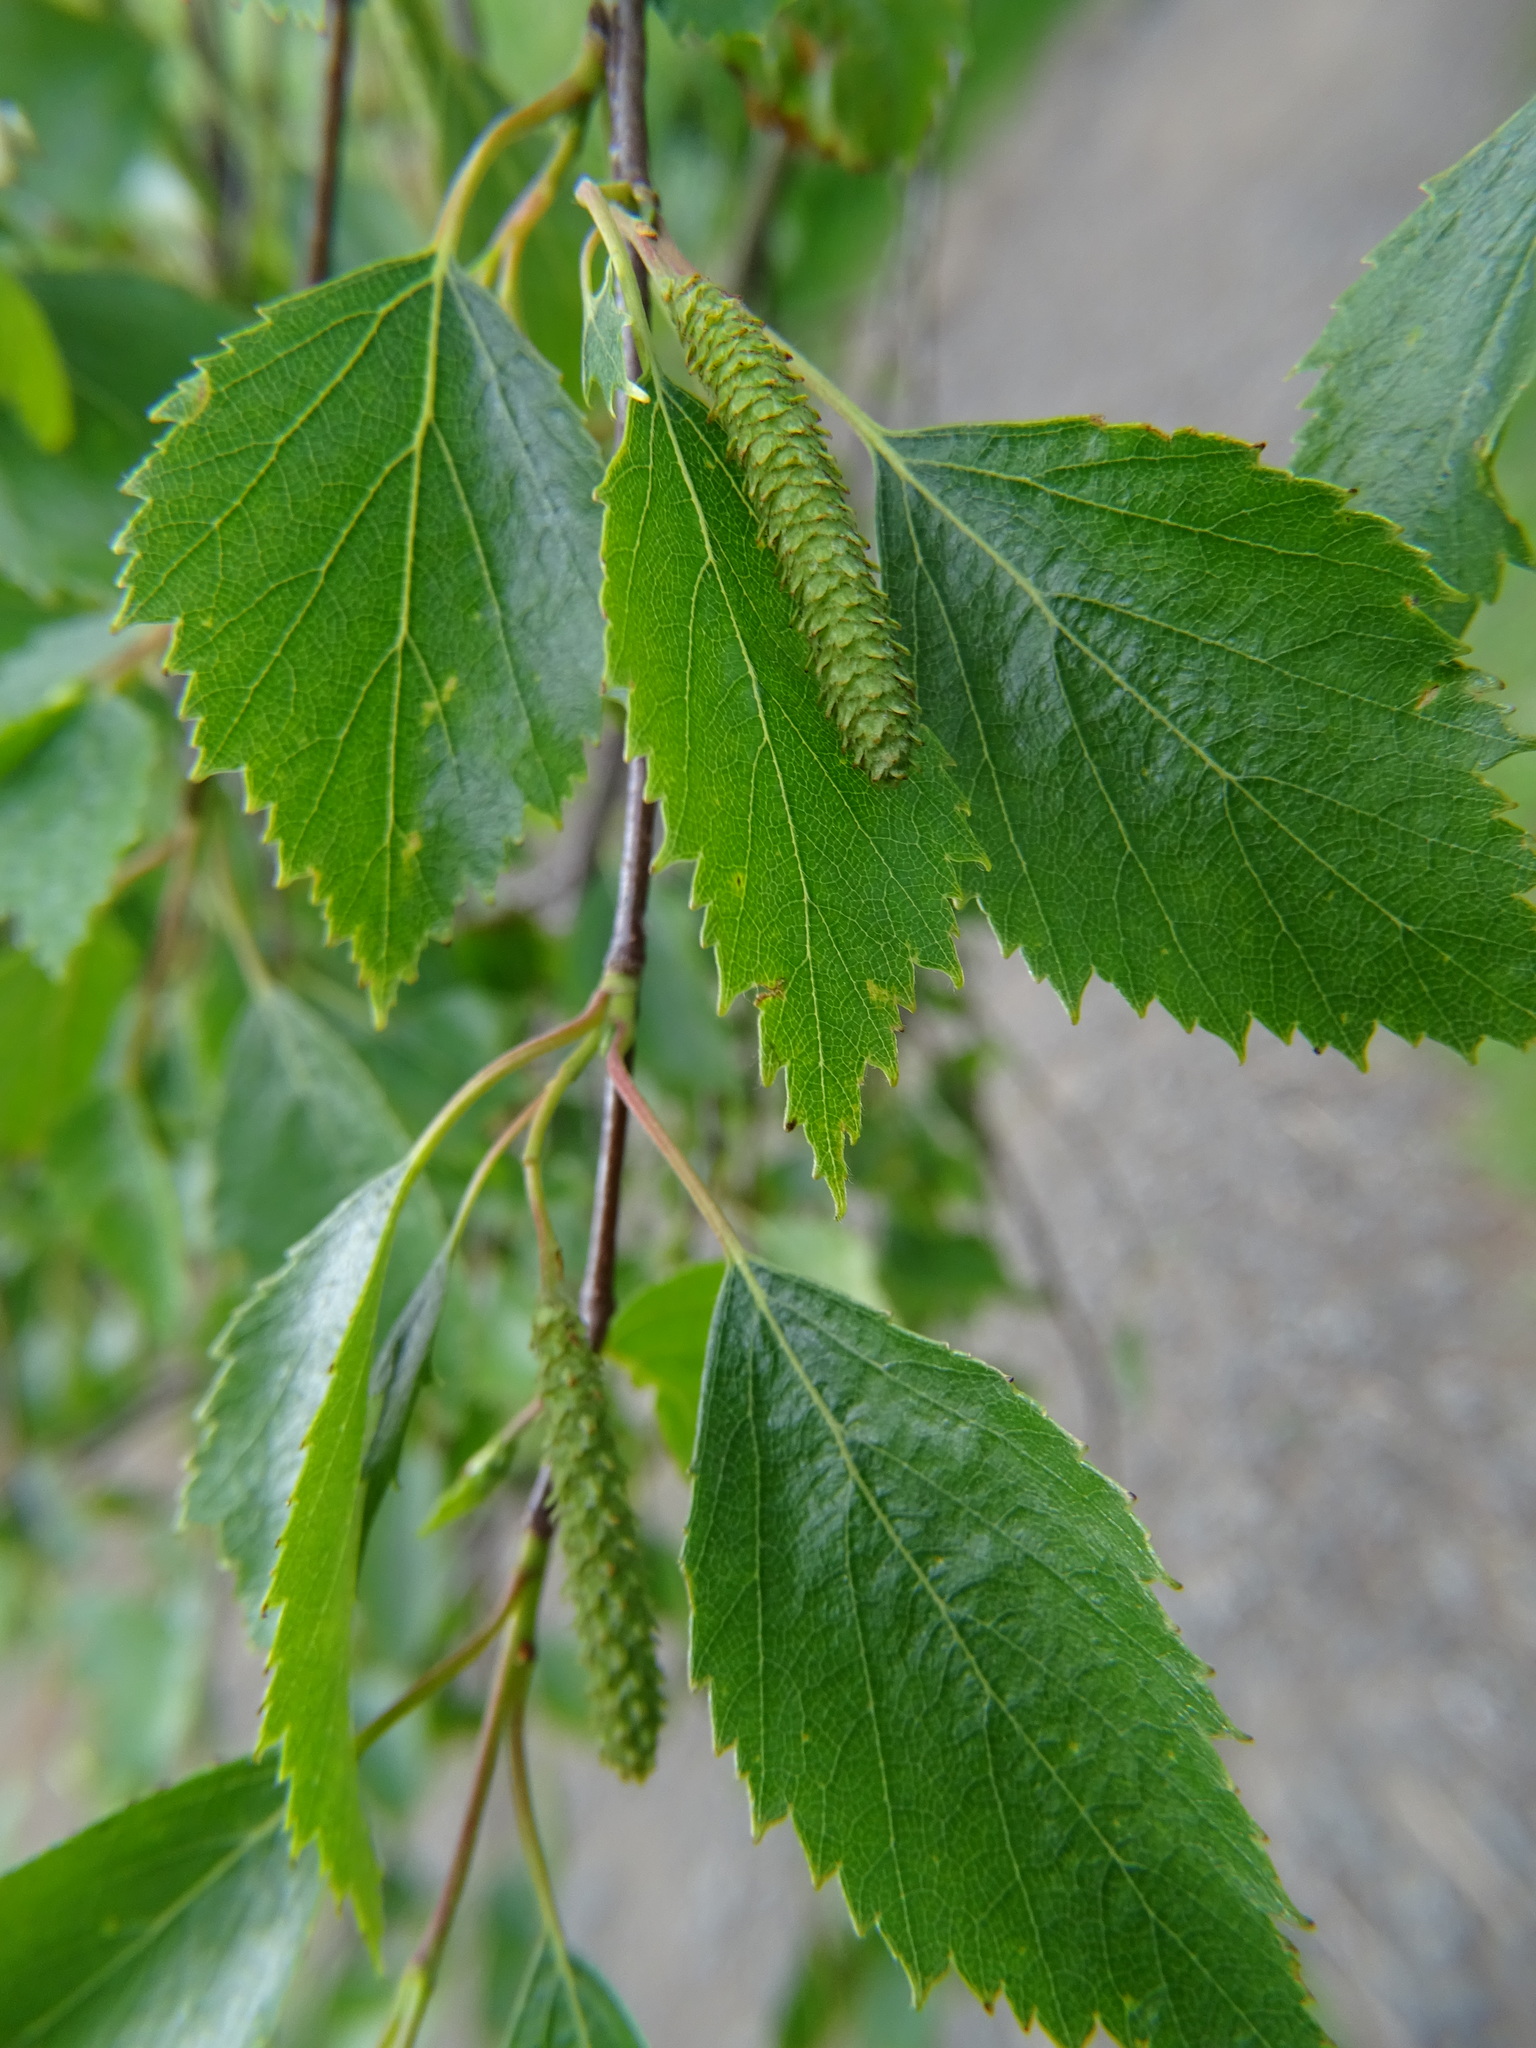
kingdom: Plantae
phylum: Tracheophyta
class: Magnoliopsida
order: Fagales
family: Betulaceae
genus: Betula
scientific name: Betula pendula
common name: Silver birch
